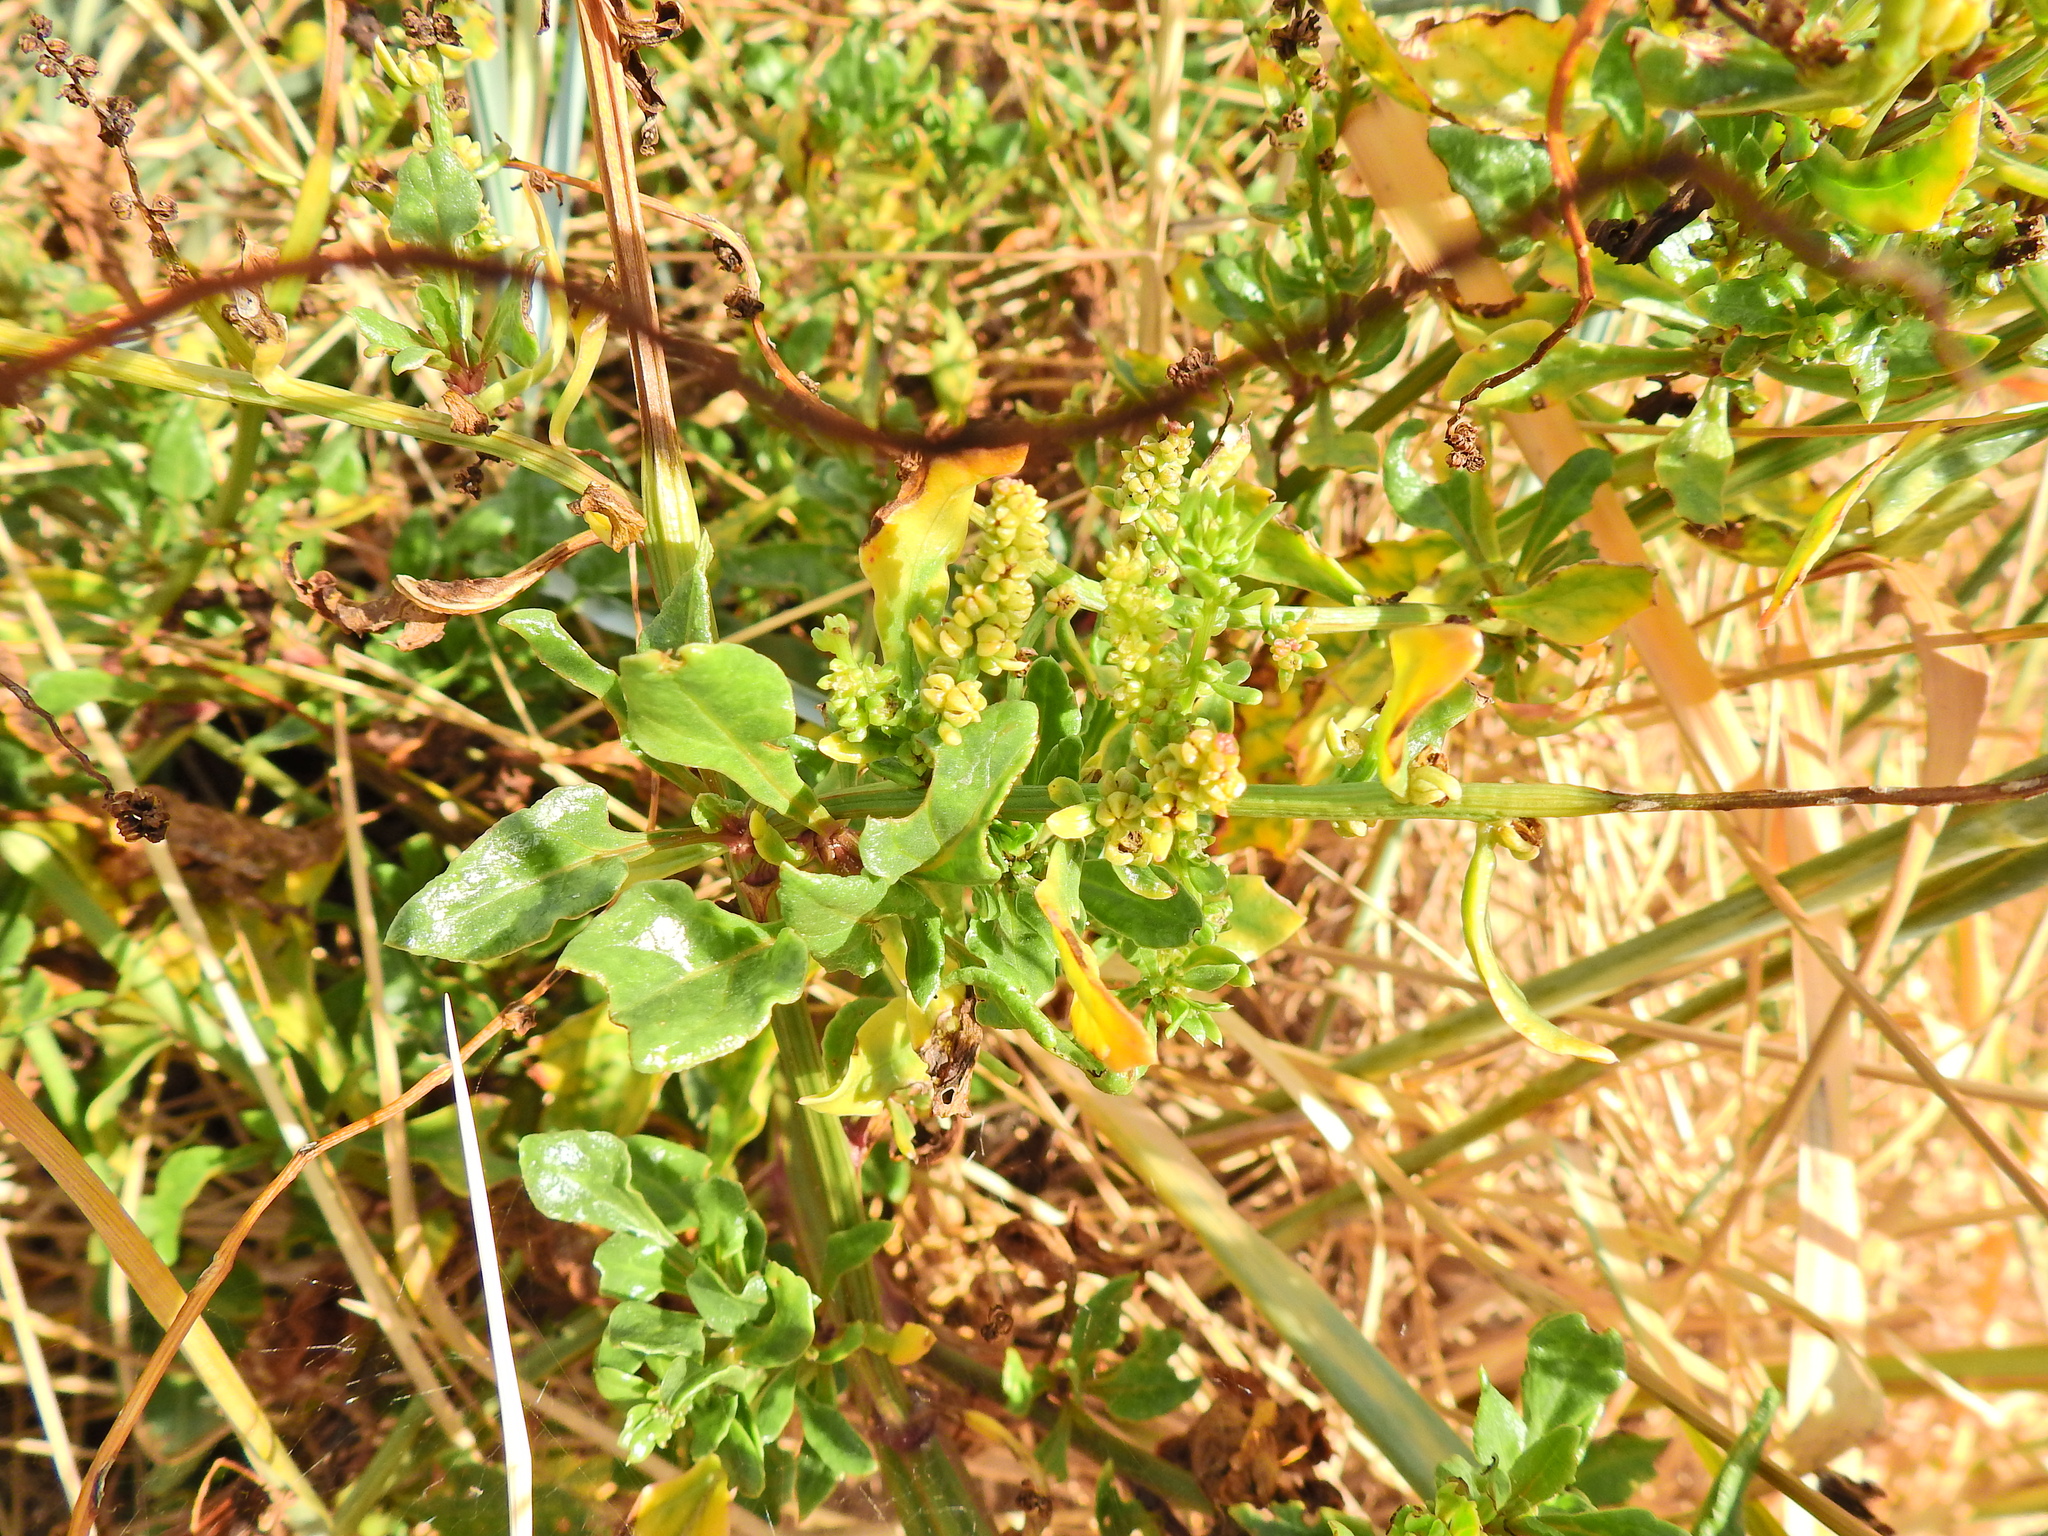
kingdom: Plantae
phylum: Tracheophyta
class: Magnoliopsida
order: Caryophyllales
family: Amaranthaceae
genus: Beta
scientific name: Beta vulgaris
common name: Beet
